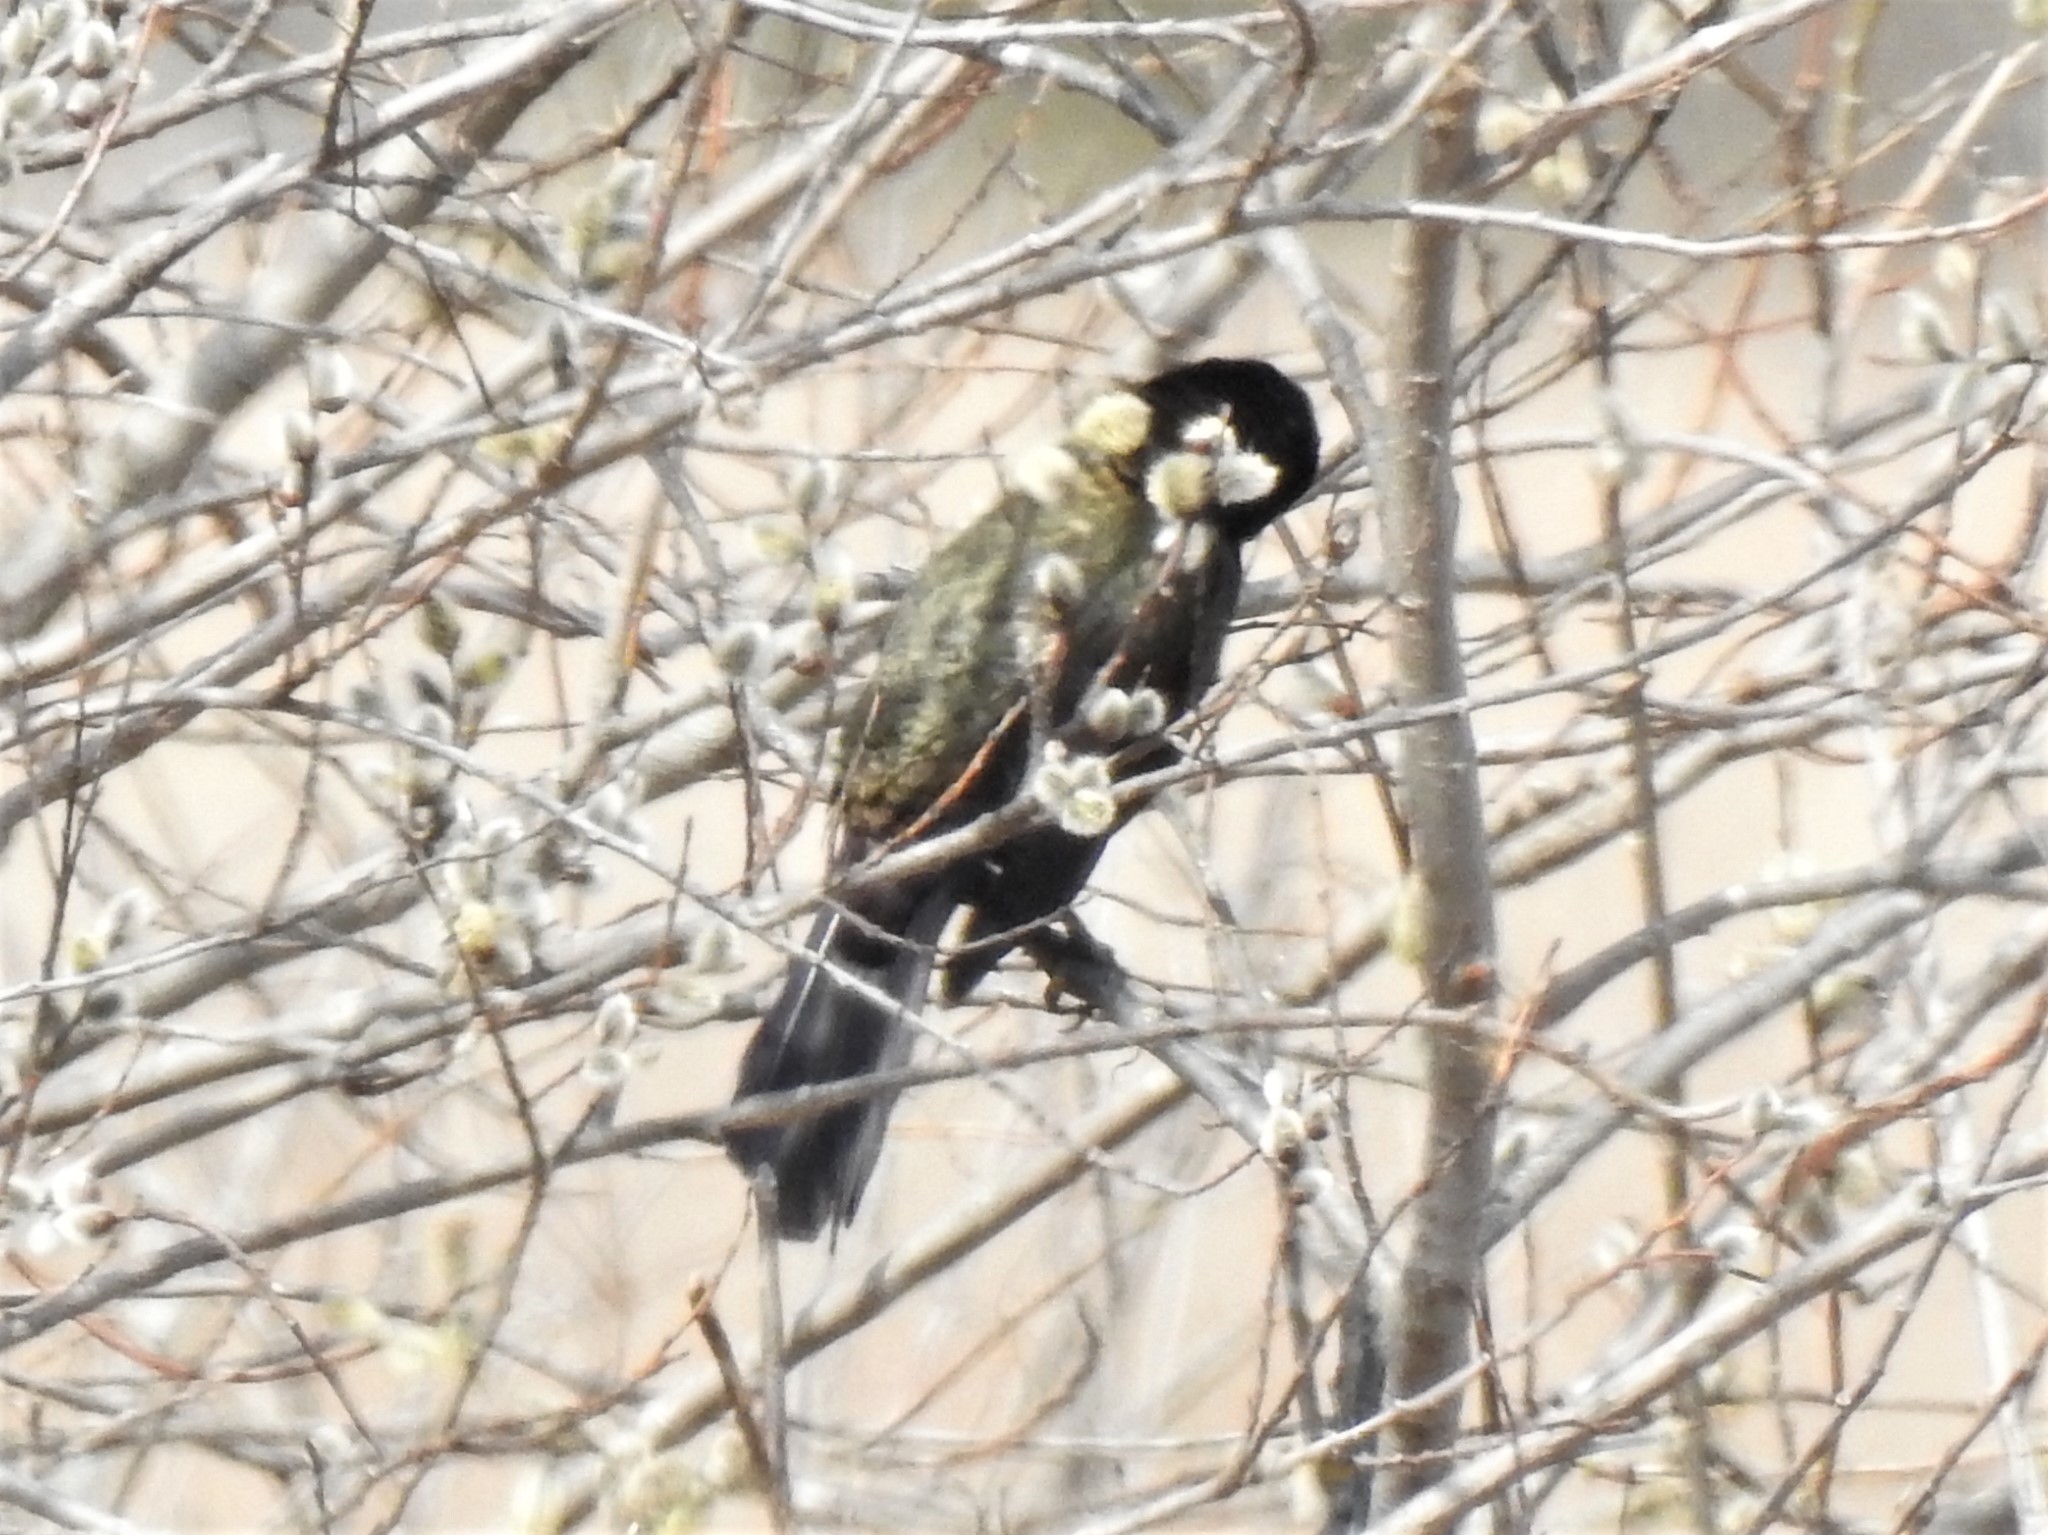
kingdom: Animalia
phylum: Chordata
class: Aves
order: Passeriformes
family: Icteridae
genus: Quiscalus
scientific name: Quiscalus quiscula
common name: Common grackle
